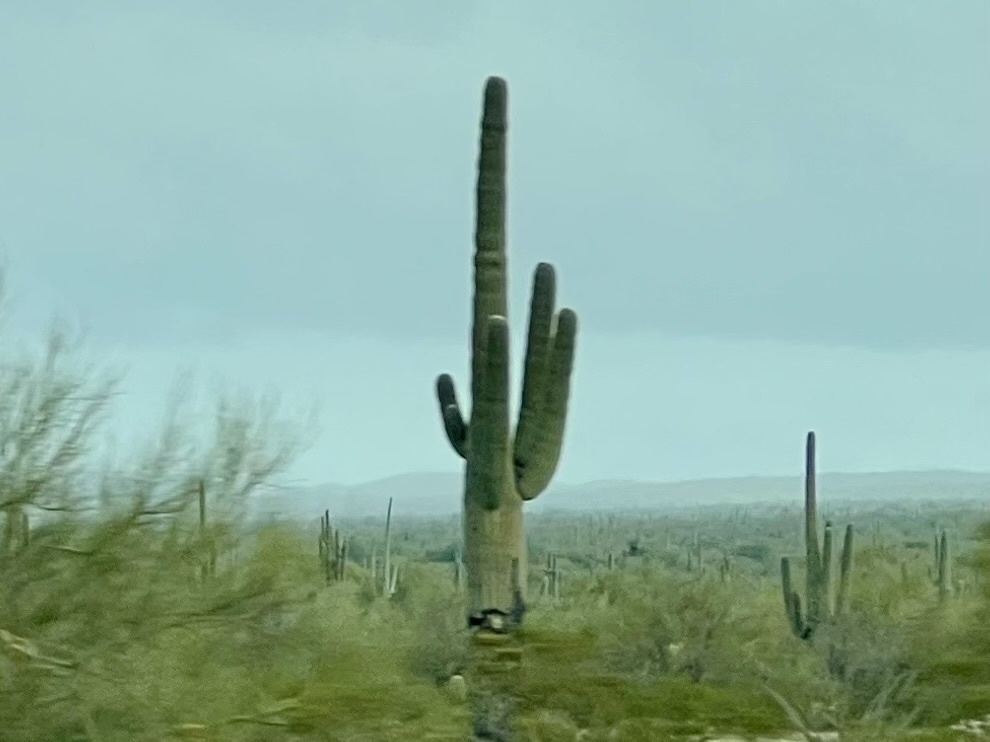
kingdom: Plantae
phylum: Tracheophyta
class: Magnoliopsida
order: Caryophyllales
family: Cactaceae
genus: Carnegiea
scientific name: Carnegiea gigantea
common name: Saguaro
